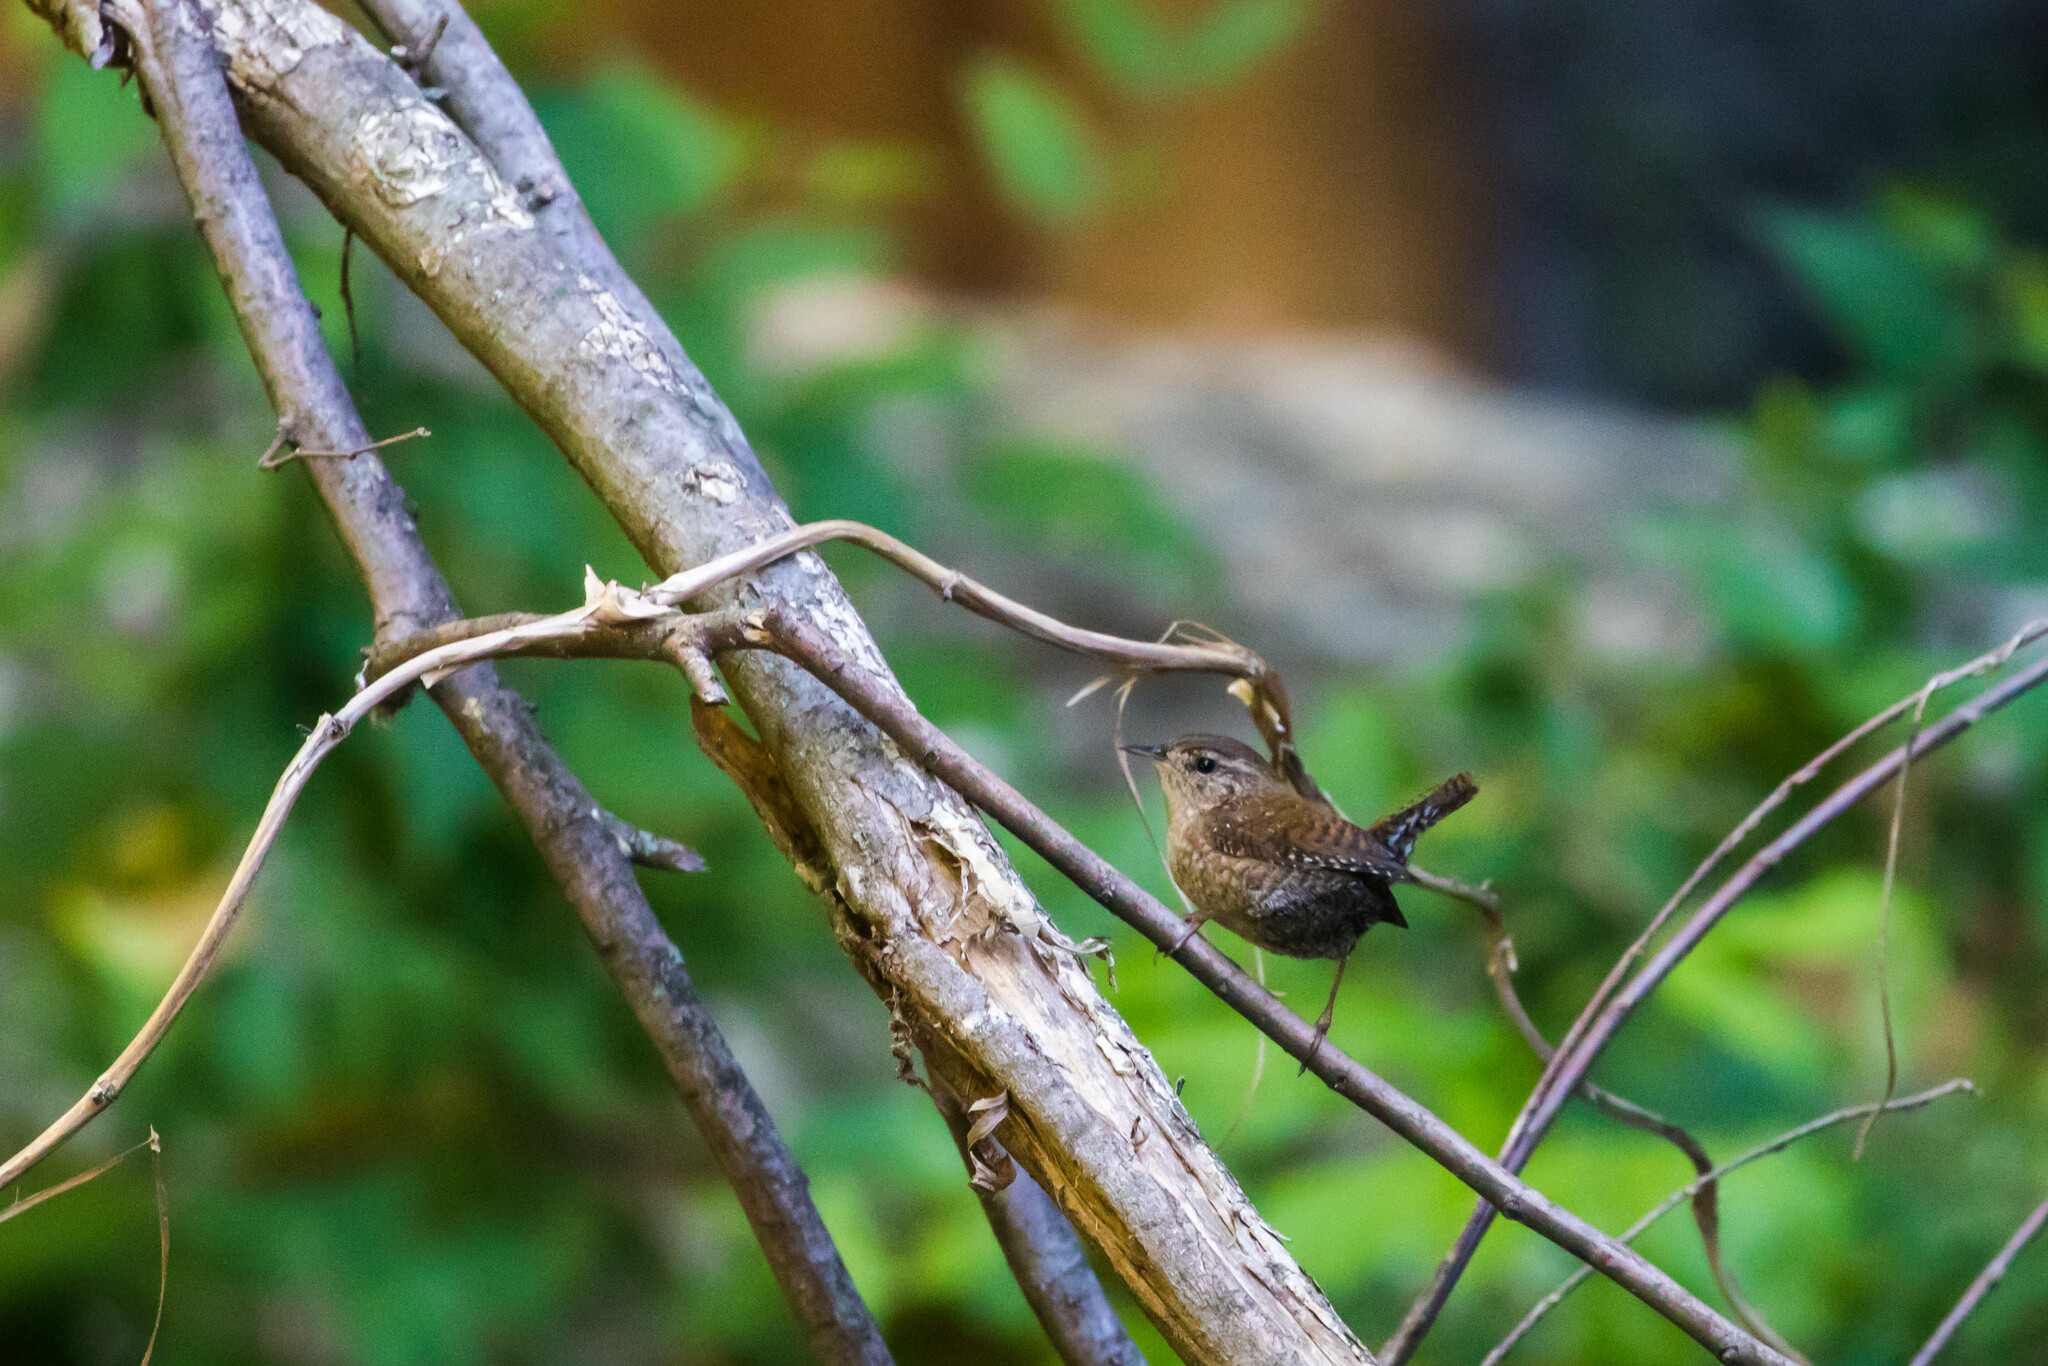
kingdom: Animalia
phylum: Chordata
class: Aves
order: Passeriformes
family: Troglodytidae
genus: Troglodytes
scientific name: Troglodytes hiemalis
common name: Winter wren
